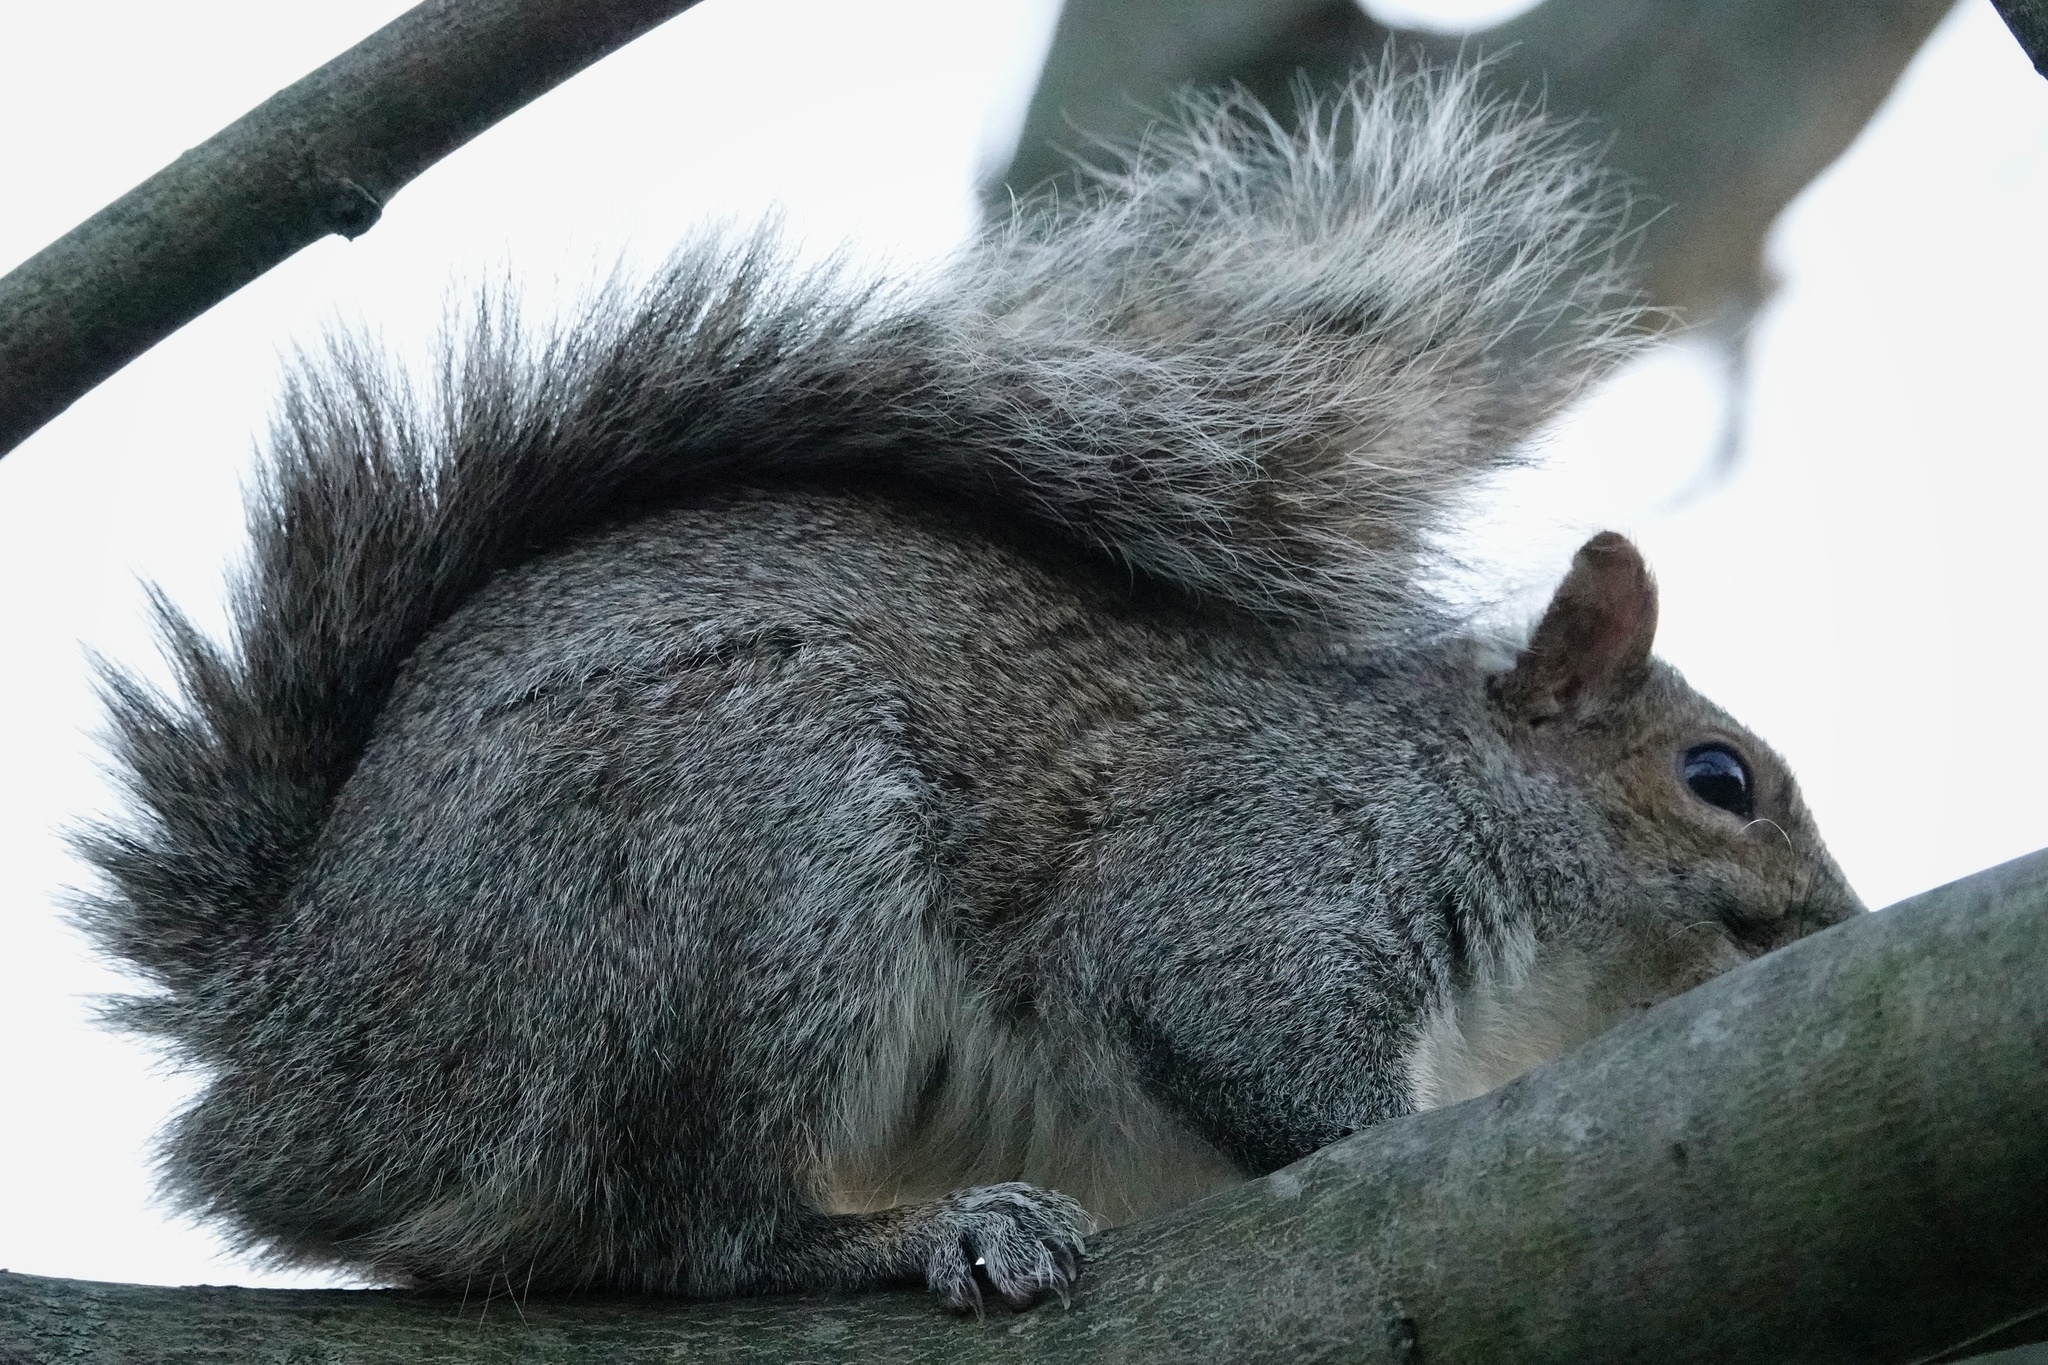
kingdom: Animalia
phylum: Chordata
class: Mammalia
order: Rodentia
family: Sciuridae
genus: Sciurus
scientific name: Sciurus carolinensis
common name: Eastern gray squirrel
